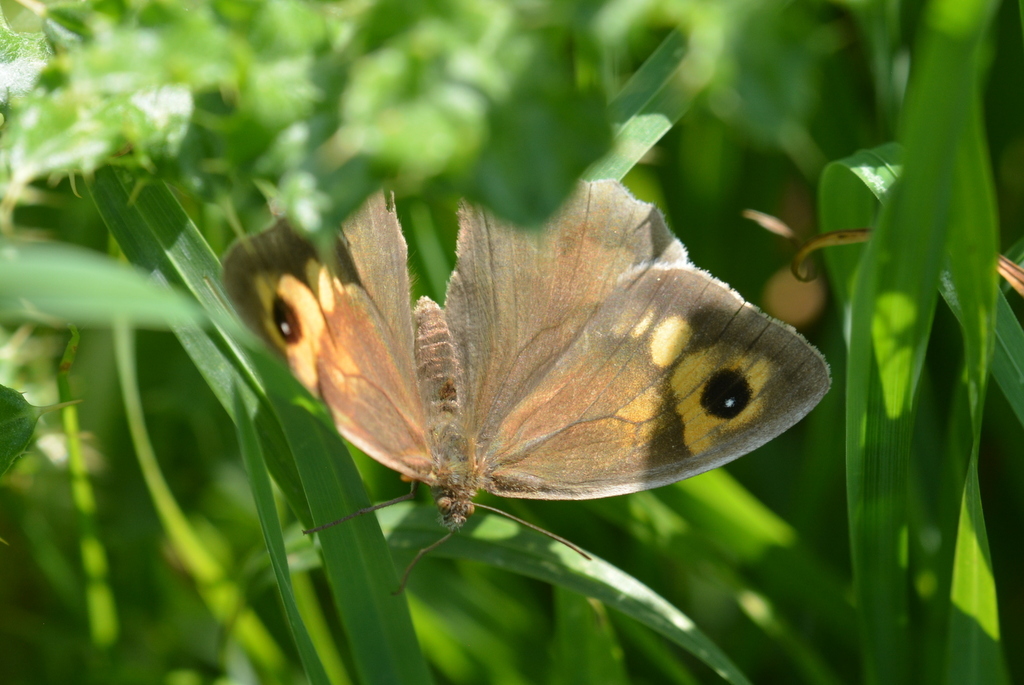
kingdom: Animalia
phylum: Arthropoda
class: Insecta
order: Lepidoptera
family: Nymphalidae
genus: Maniola
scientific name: Maniola jurtina
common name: Meadow brown
